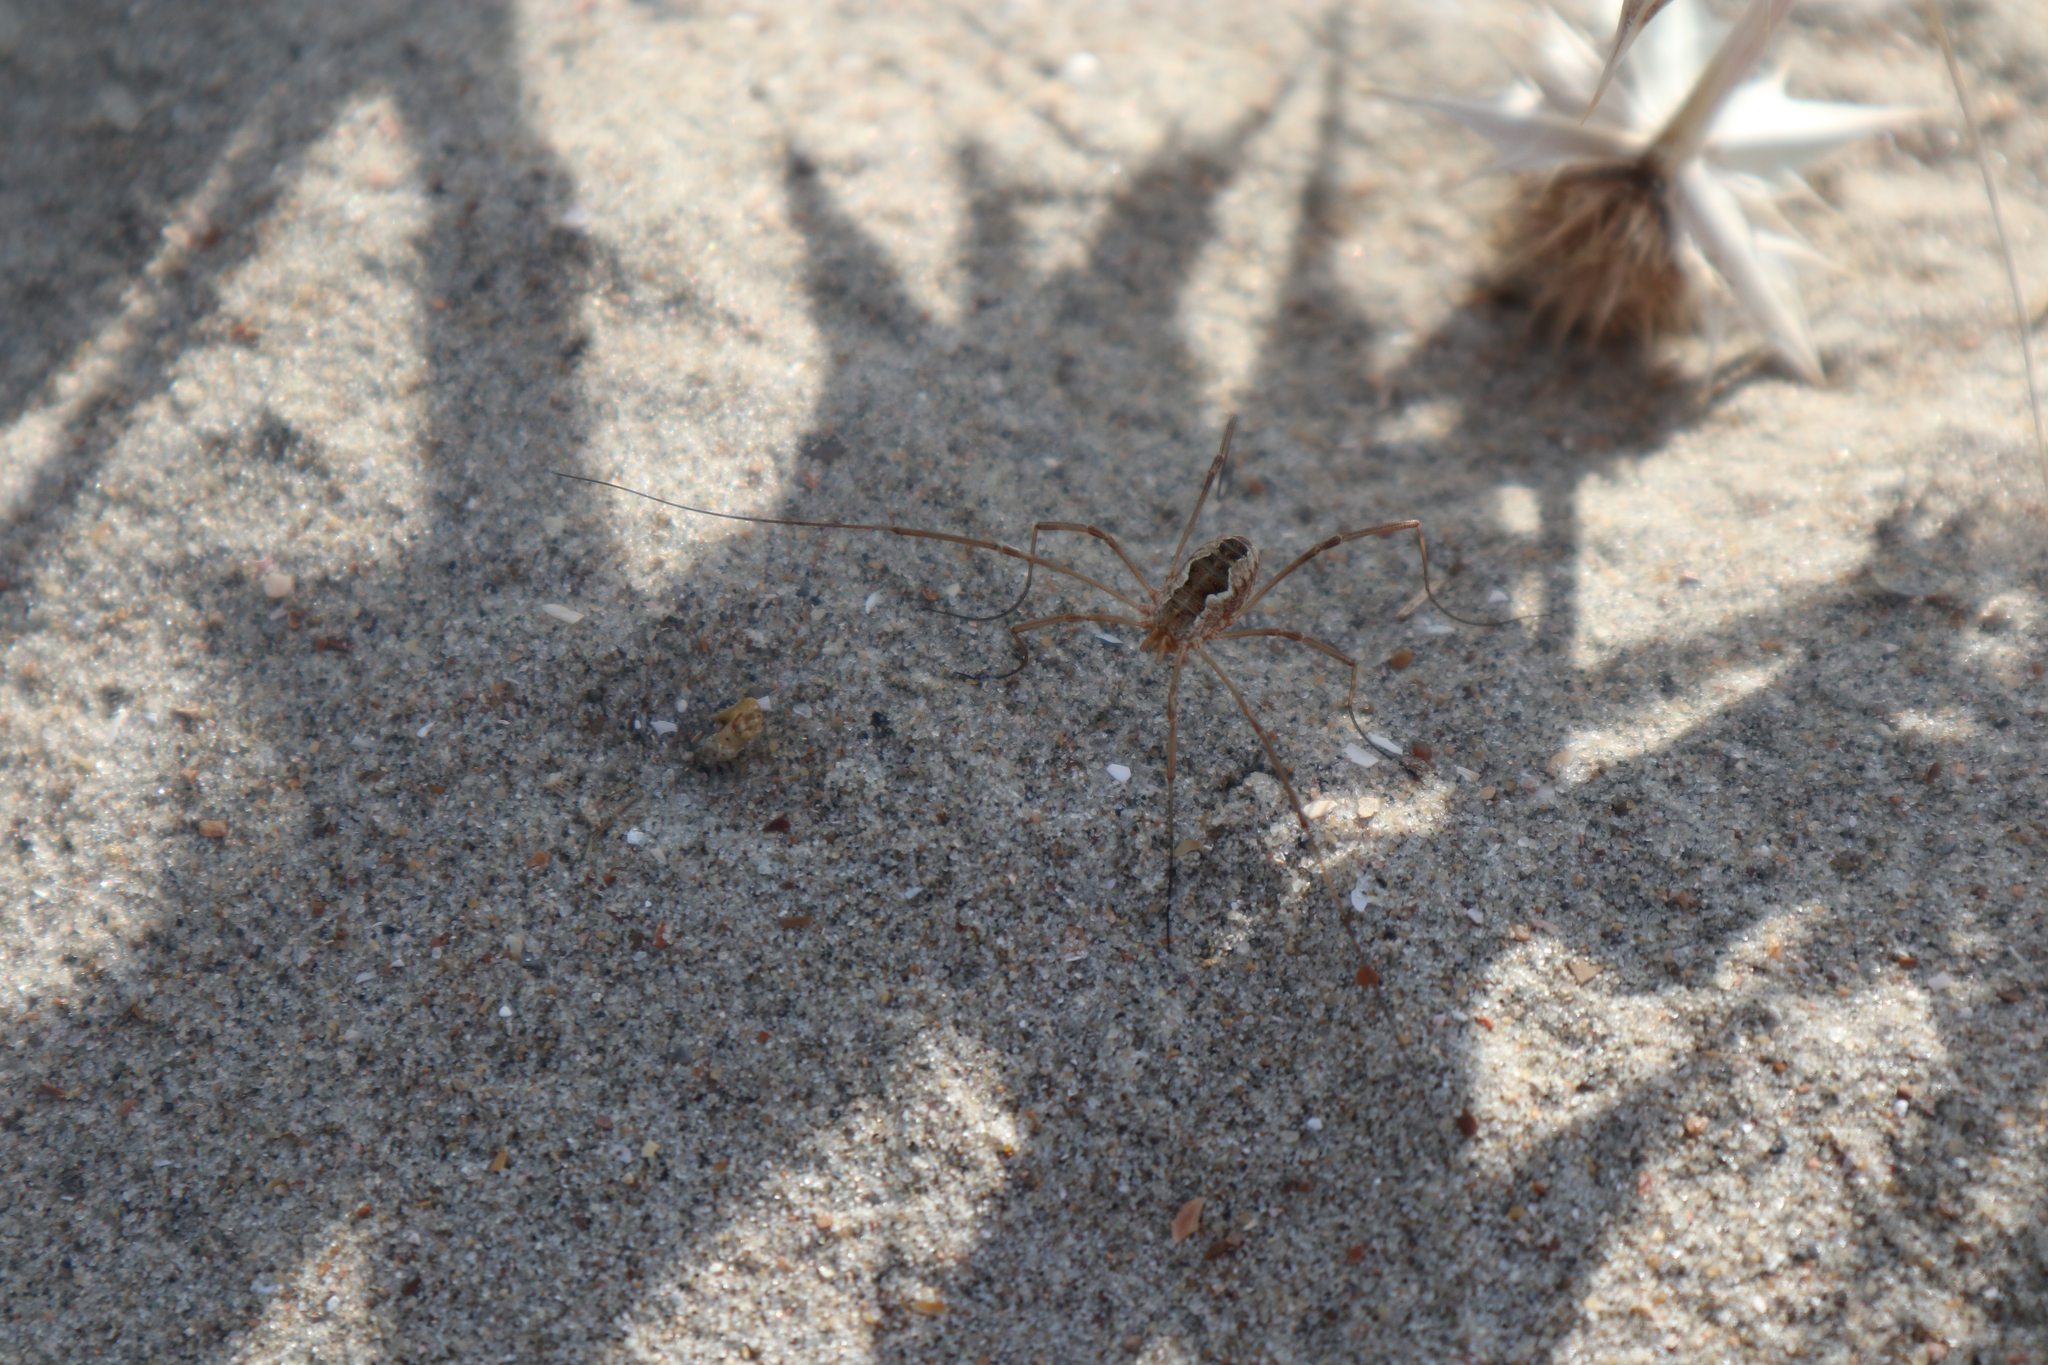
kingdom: Animalia
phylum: Arthropoda
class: Arachnida
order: Opiliones
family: Phalangiidae
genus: Phalangium
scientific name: Phalangium opilio
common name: Daddy longleg
